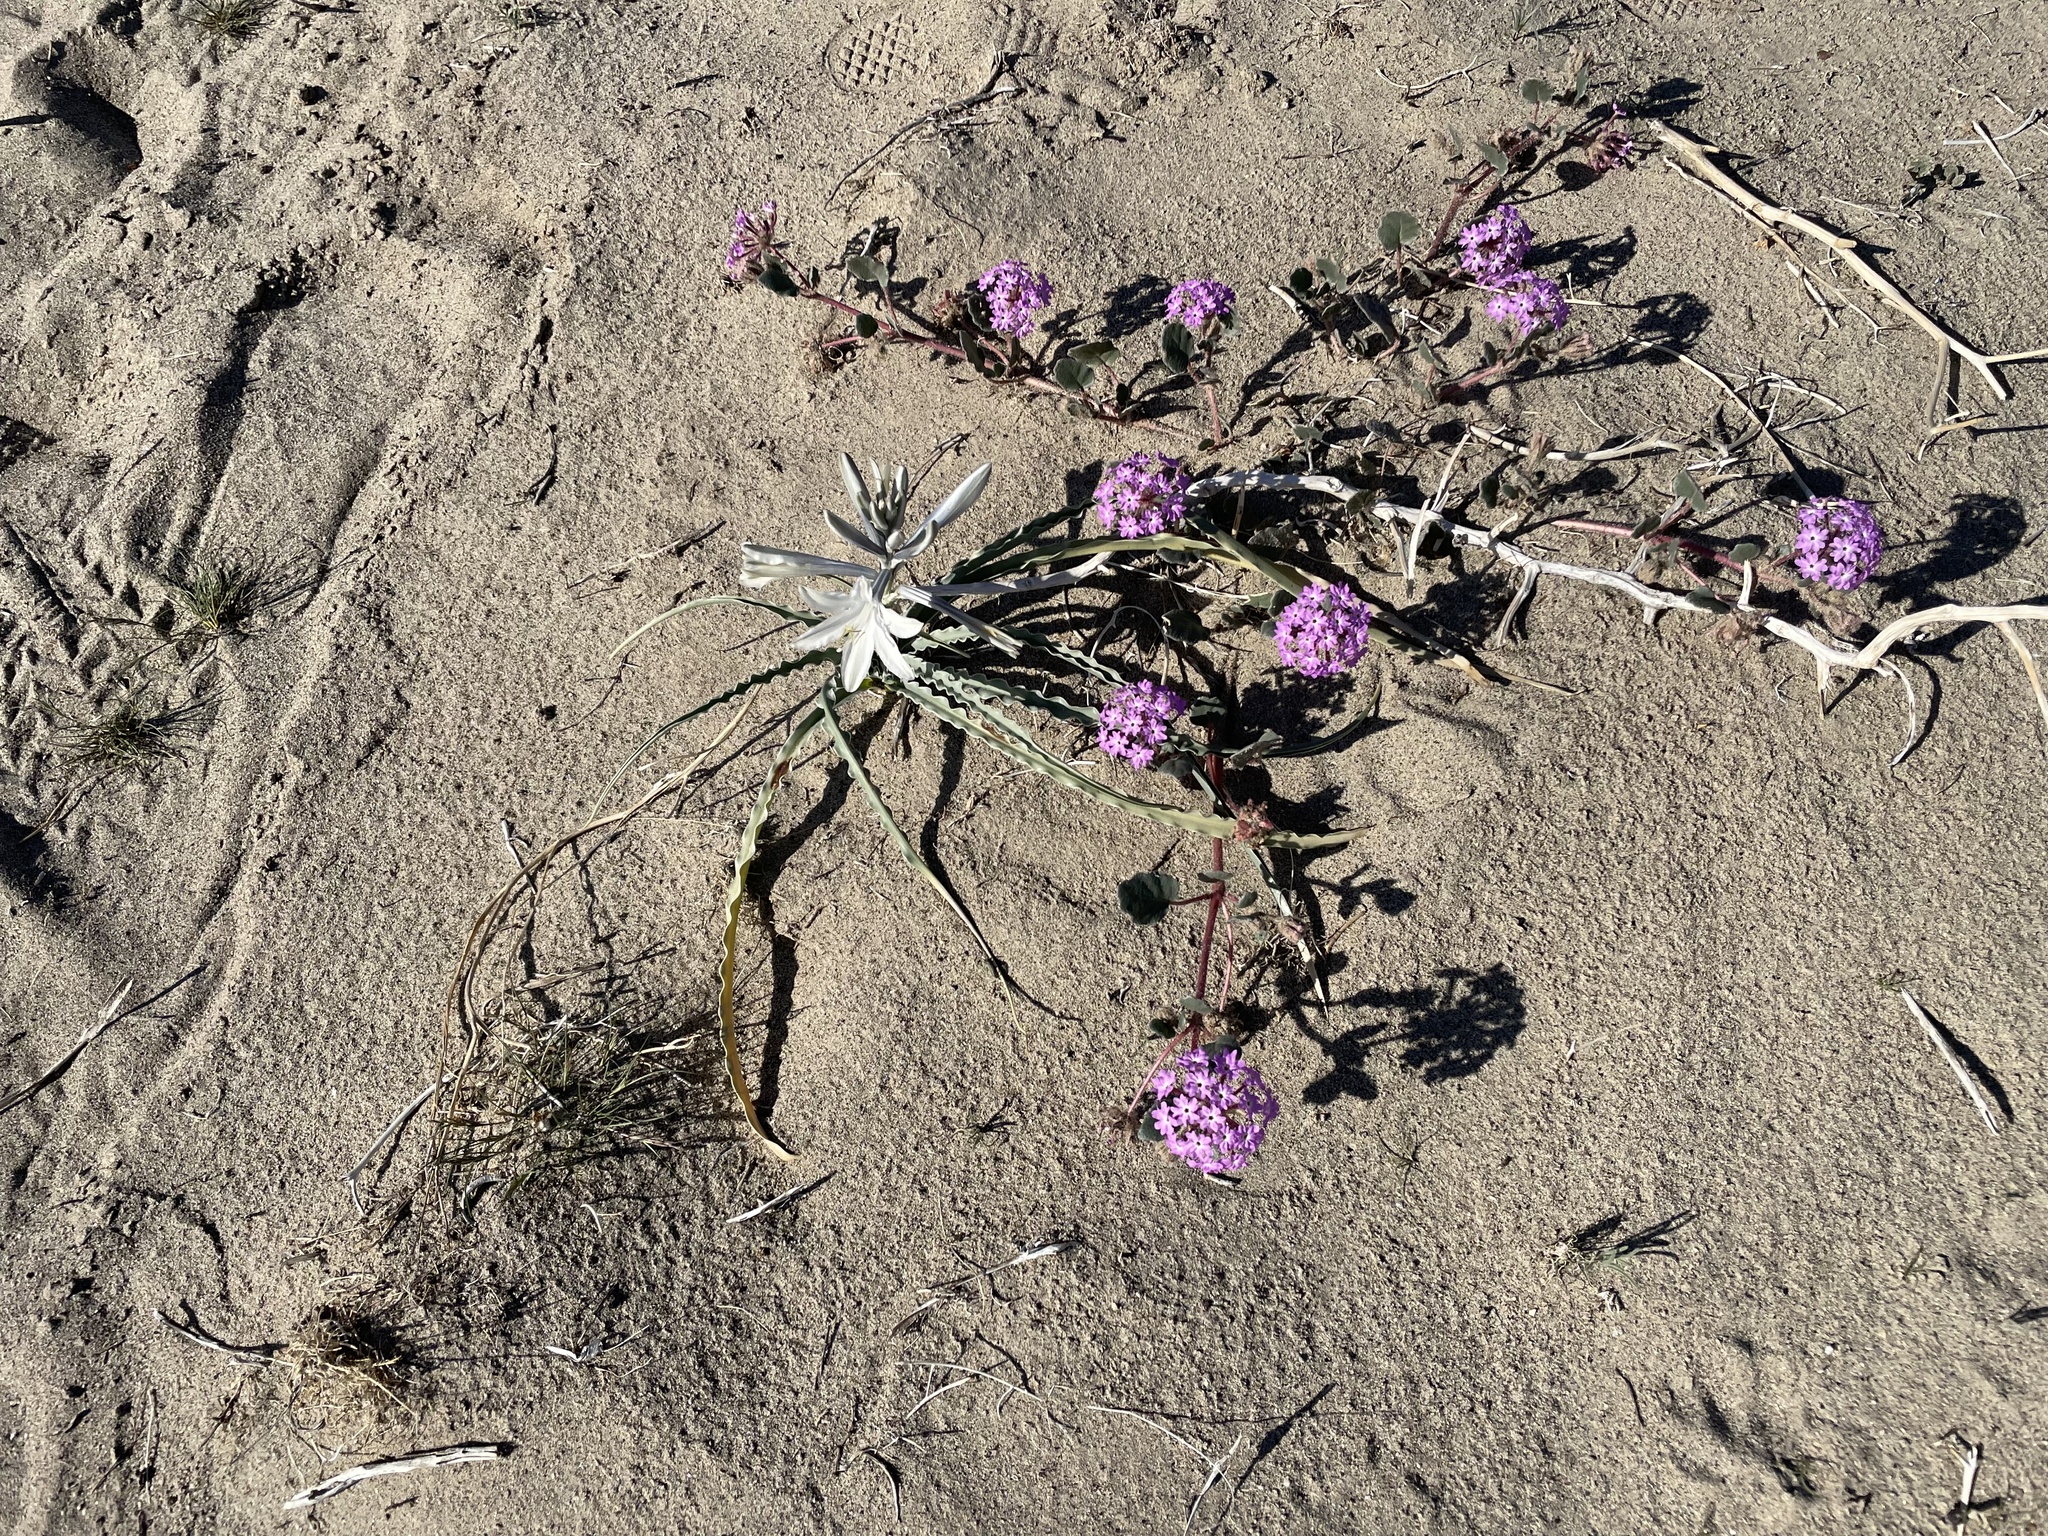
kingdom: Plantae
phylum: Tracheophyta
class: Liliopsida
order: Asparagales
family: Asparagaceae
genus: Hesperocallis
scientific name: Hesperocallis undulata
